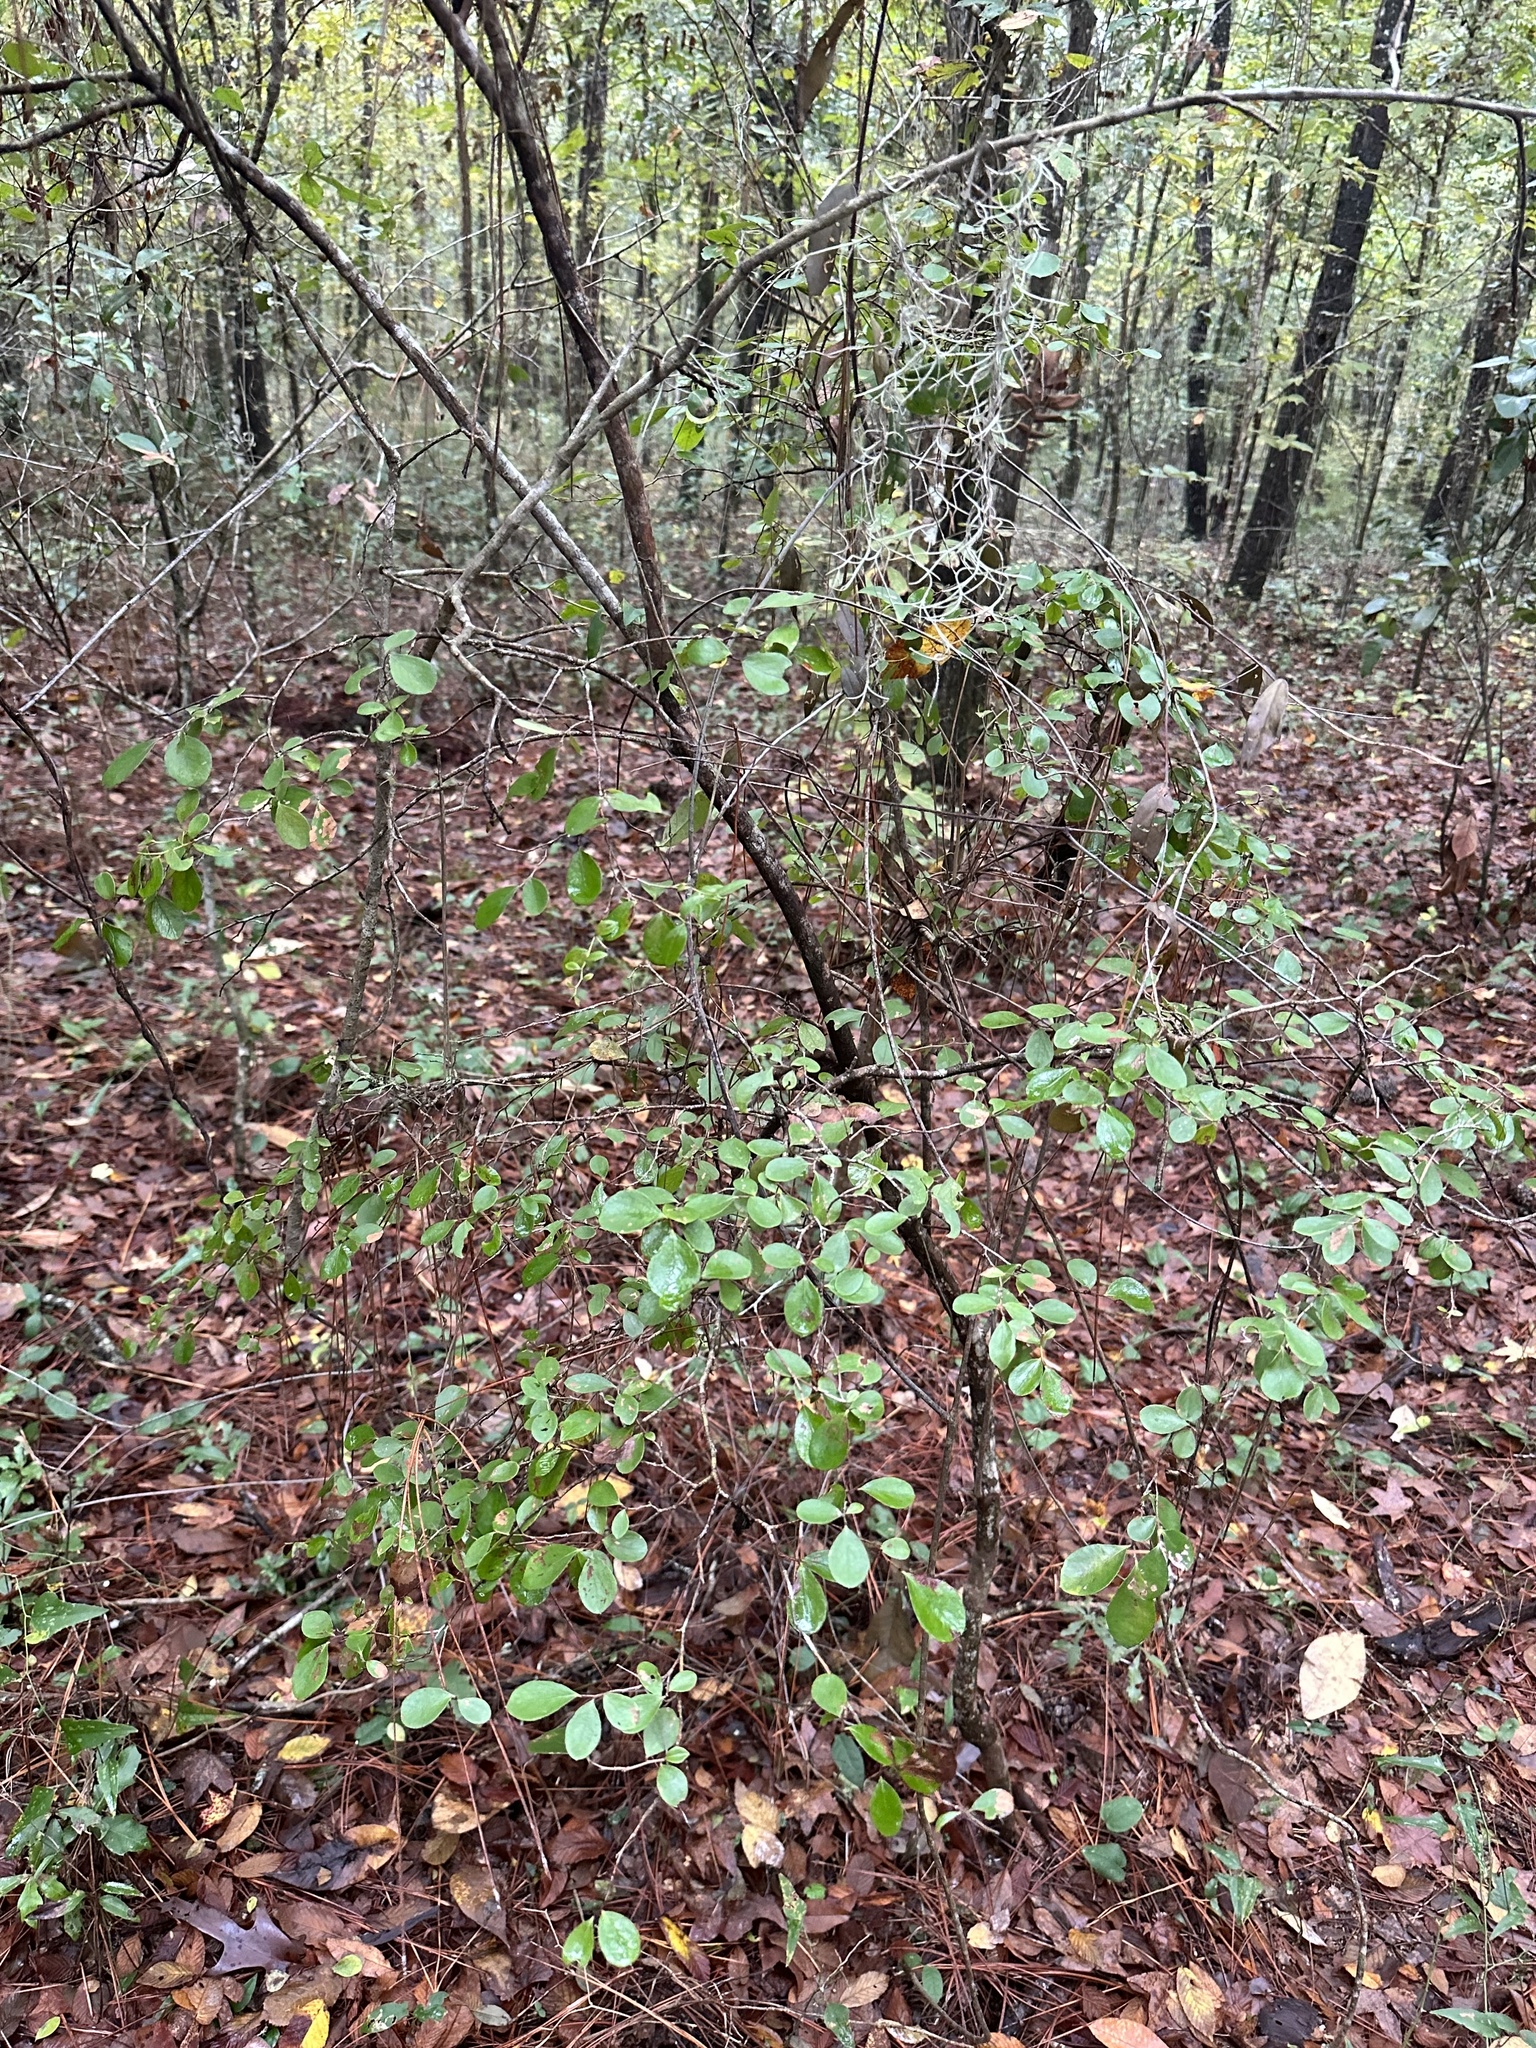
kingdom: Plantae
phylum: Tracheophyta
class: Magnoliopsida
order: Ericales
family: Ericaceae
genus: Vaccinium
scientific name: Vaccinium arboreum
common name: Farkleberry
